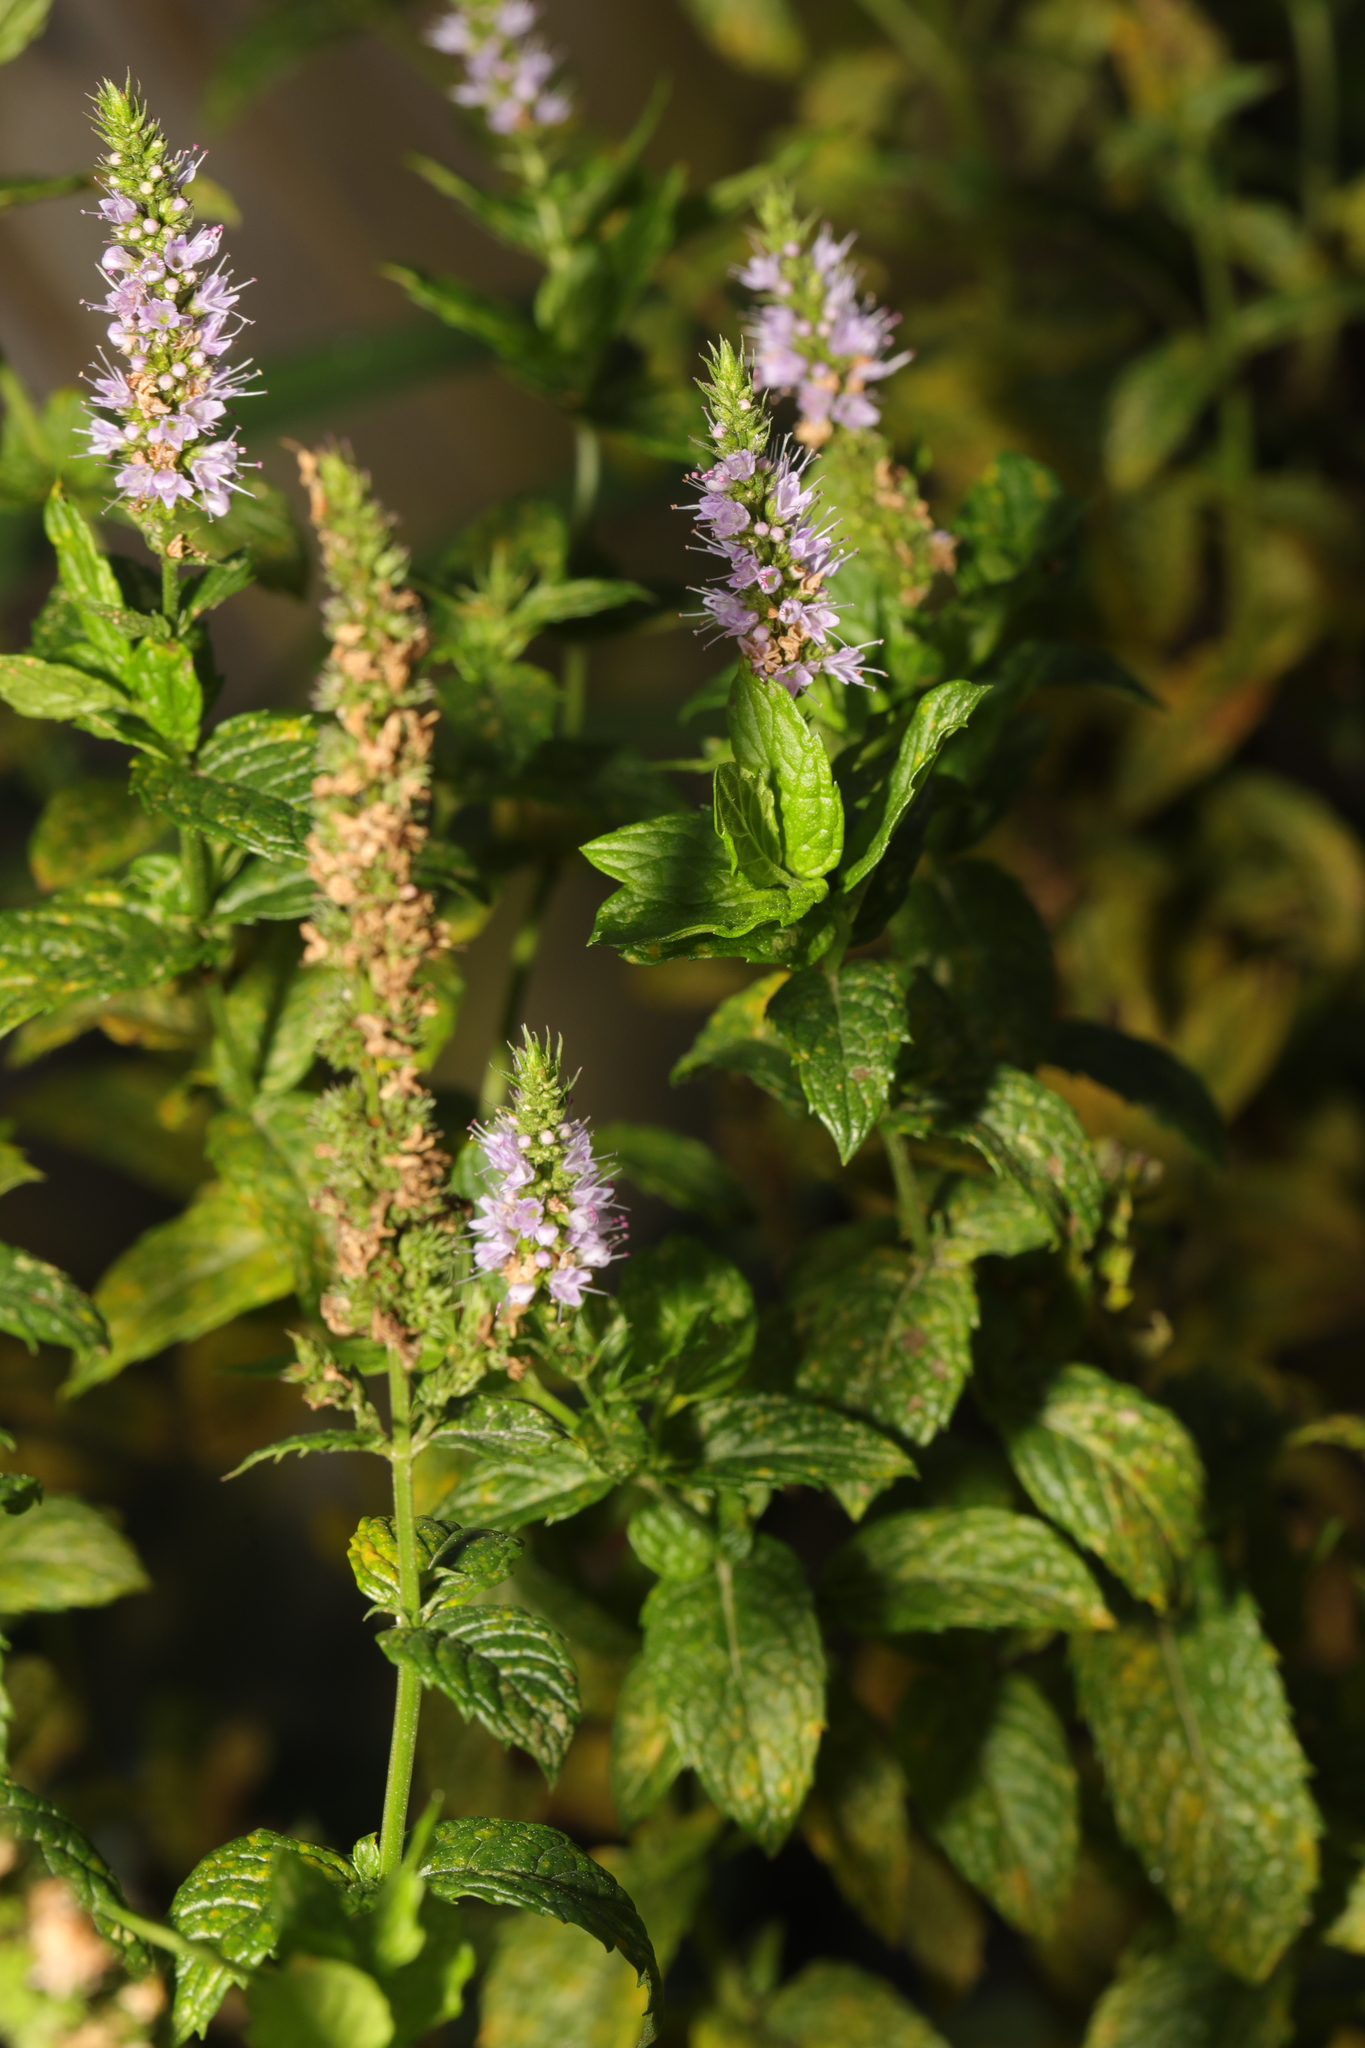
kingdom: Plantae
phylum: Tracheophyta
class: Magnoliopsida
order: Lamiales
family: Lamiaceae
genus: Mentha
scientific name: Mentha spicata
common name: Spearmint
